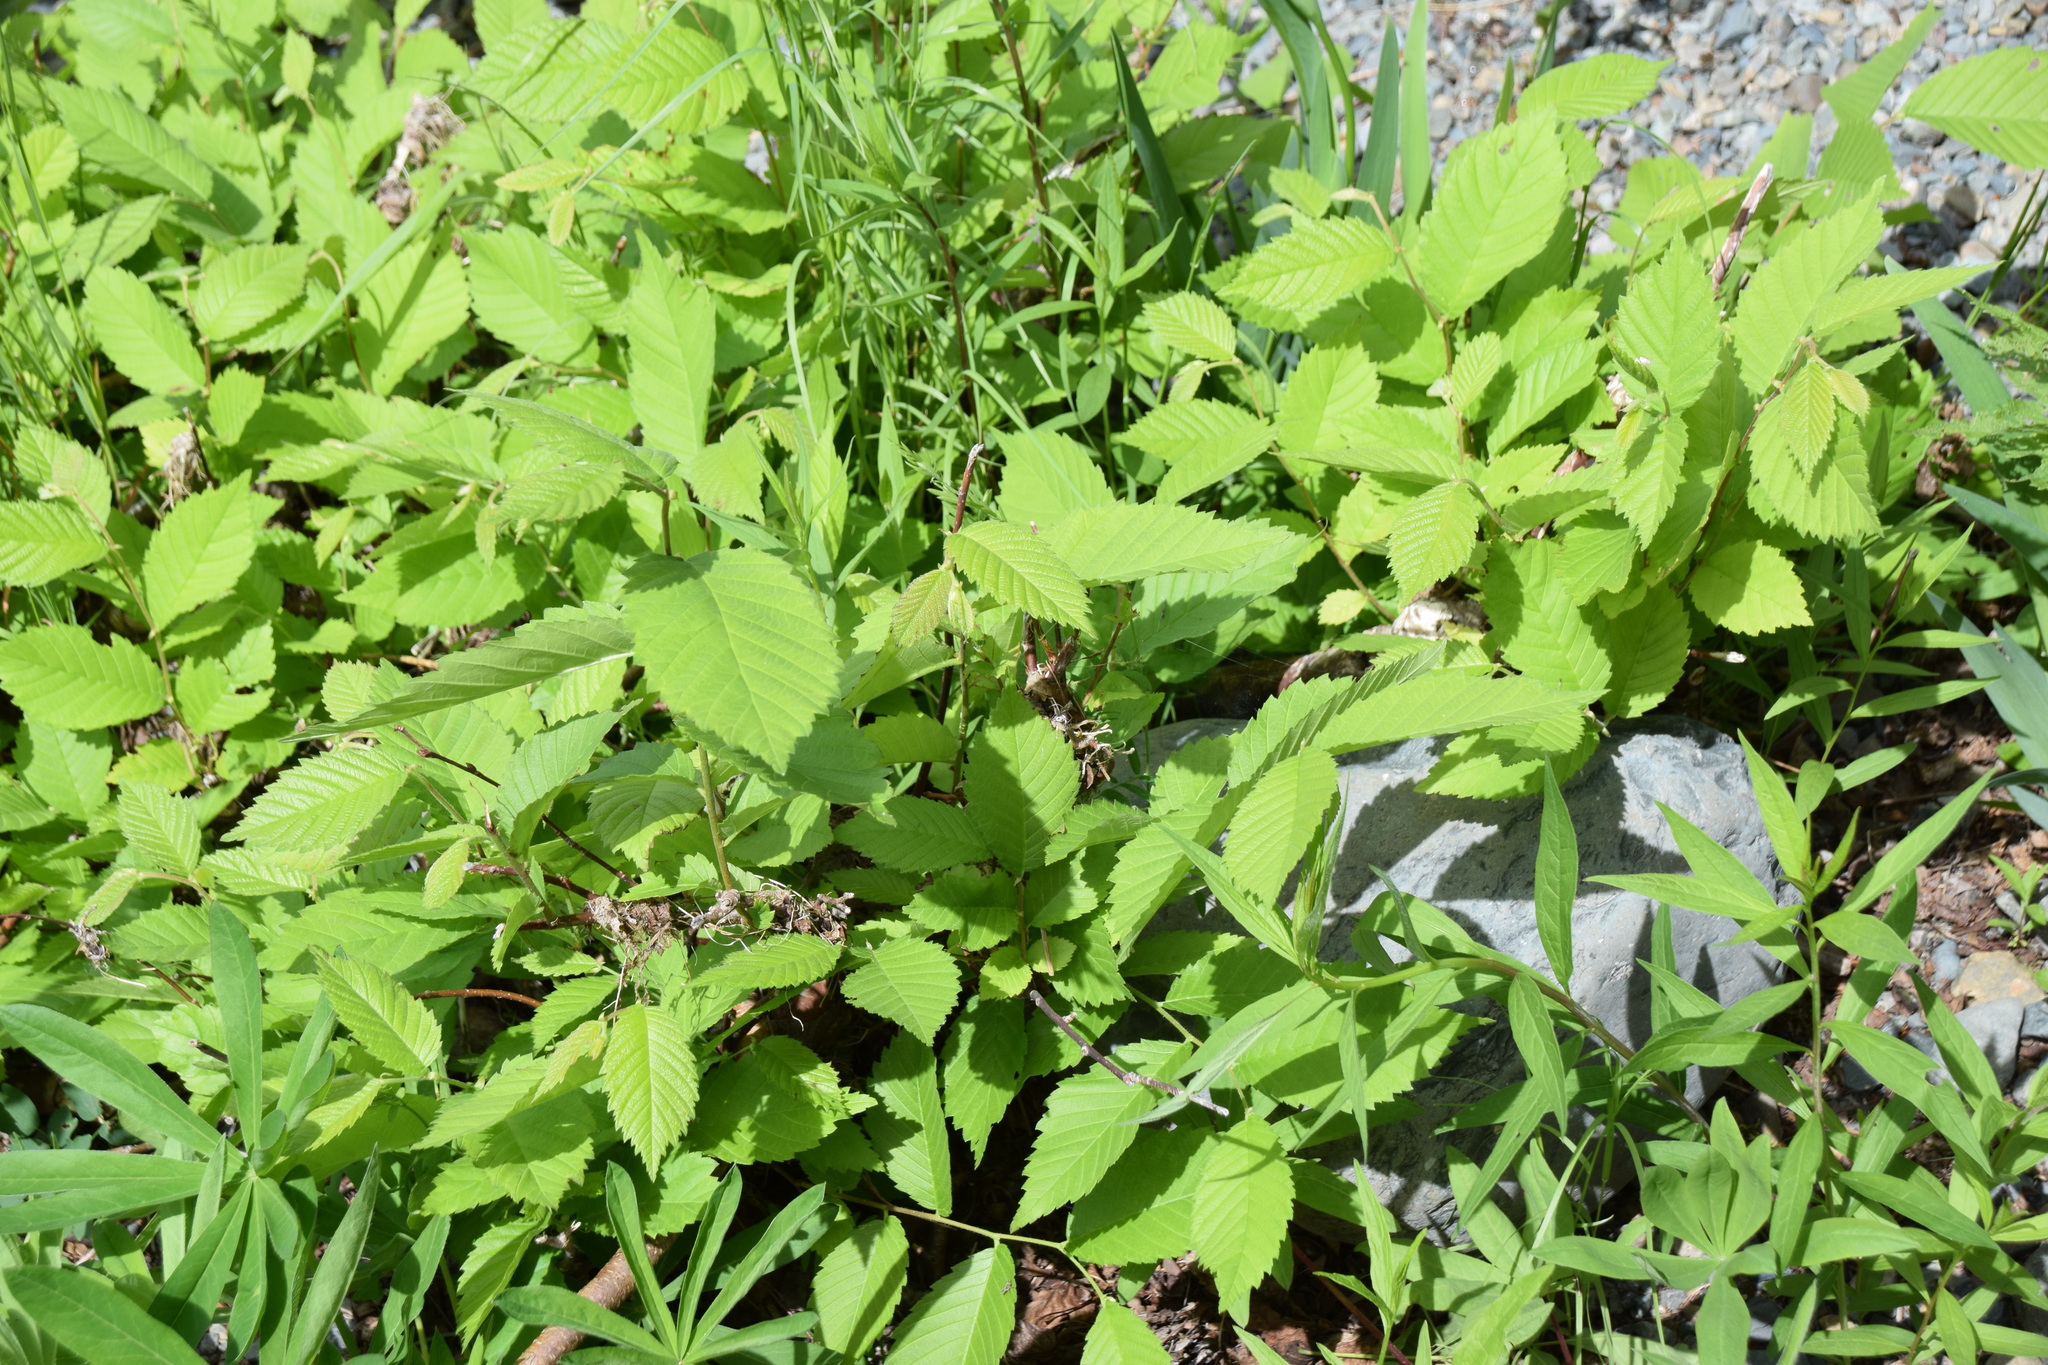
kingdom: Plantae
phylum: Tracheophyta
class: Magnoliopsida
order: Rosales
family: Ulmaceae
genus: Ulmus
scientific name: Ulmus americana
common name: American elm
